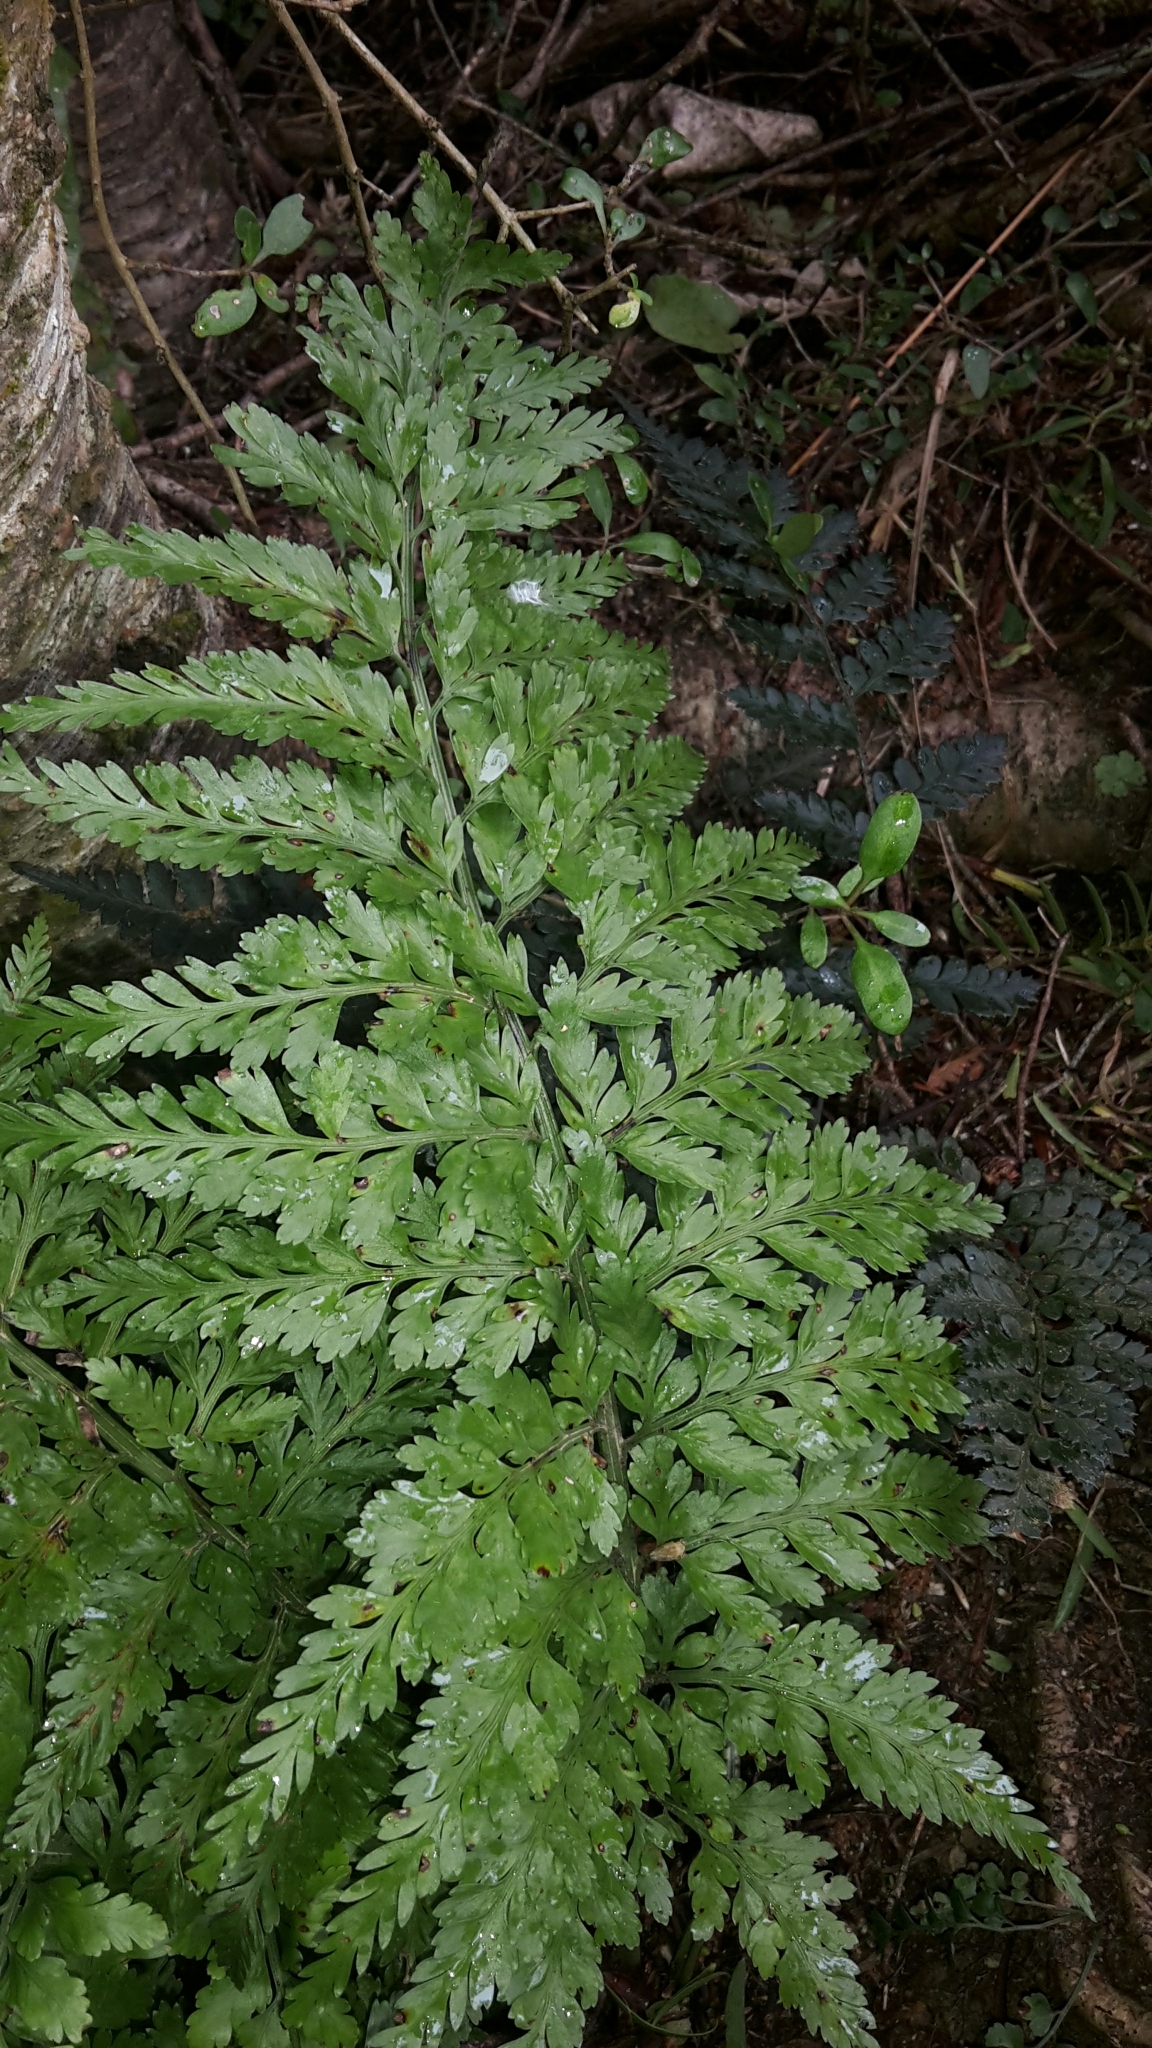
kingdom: Plantae
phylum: Tracheophyta
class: Polypodiopsida
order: Polypodiales
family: Aspleniaceae
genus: Asplenium
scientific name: Asplenium
